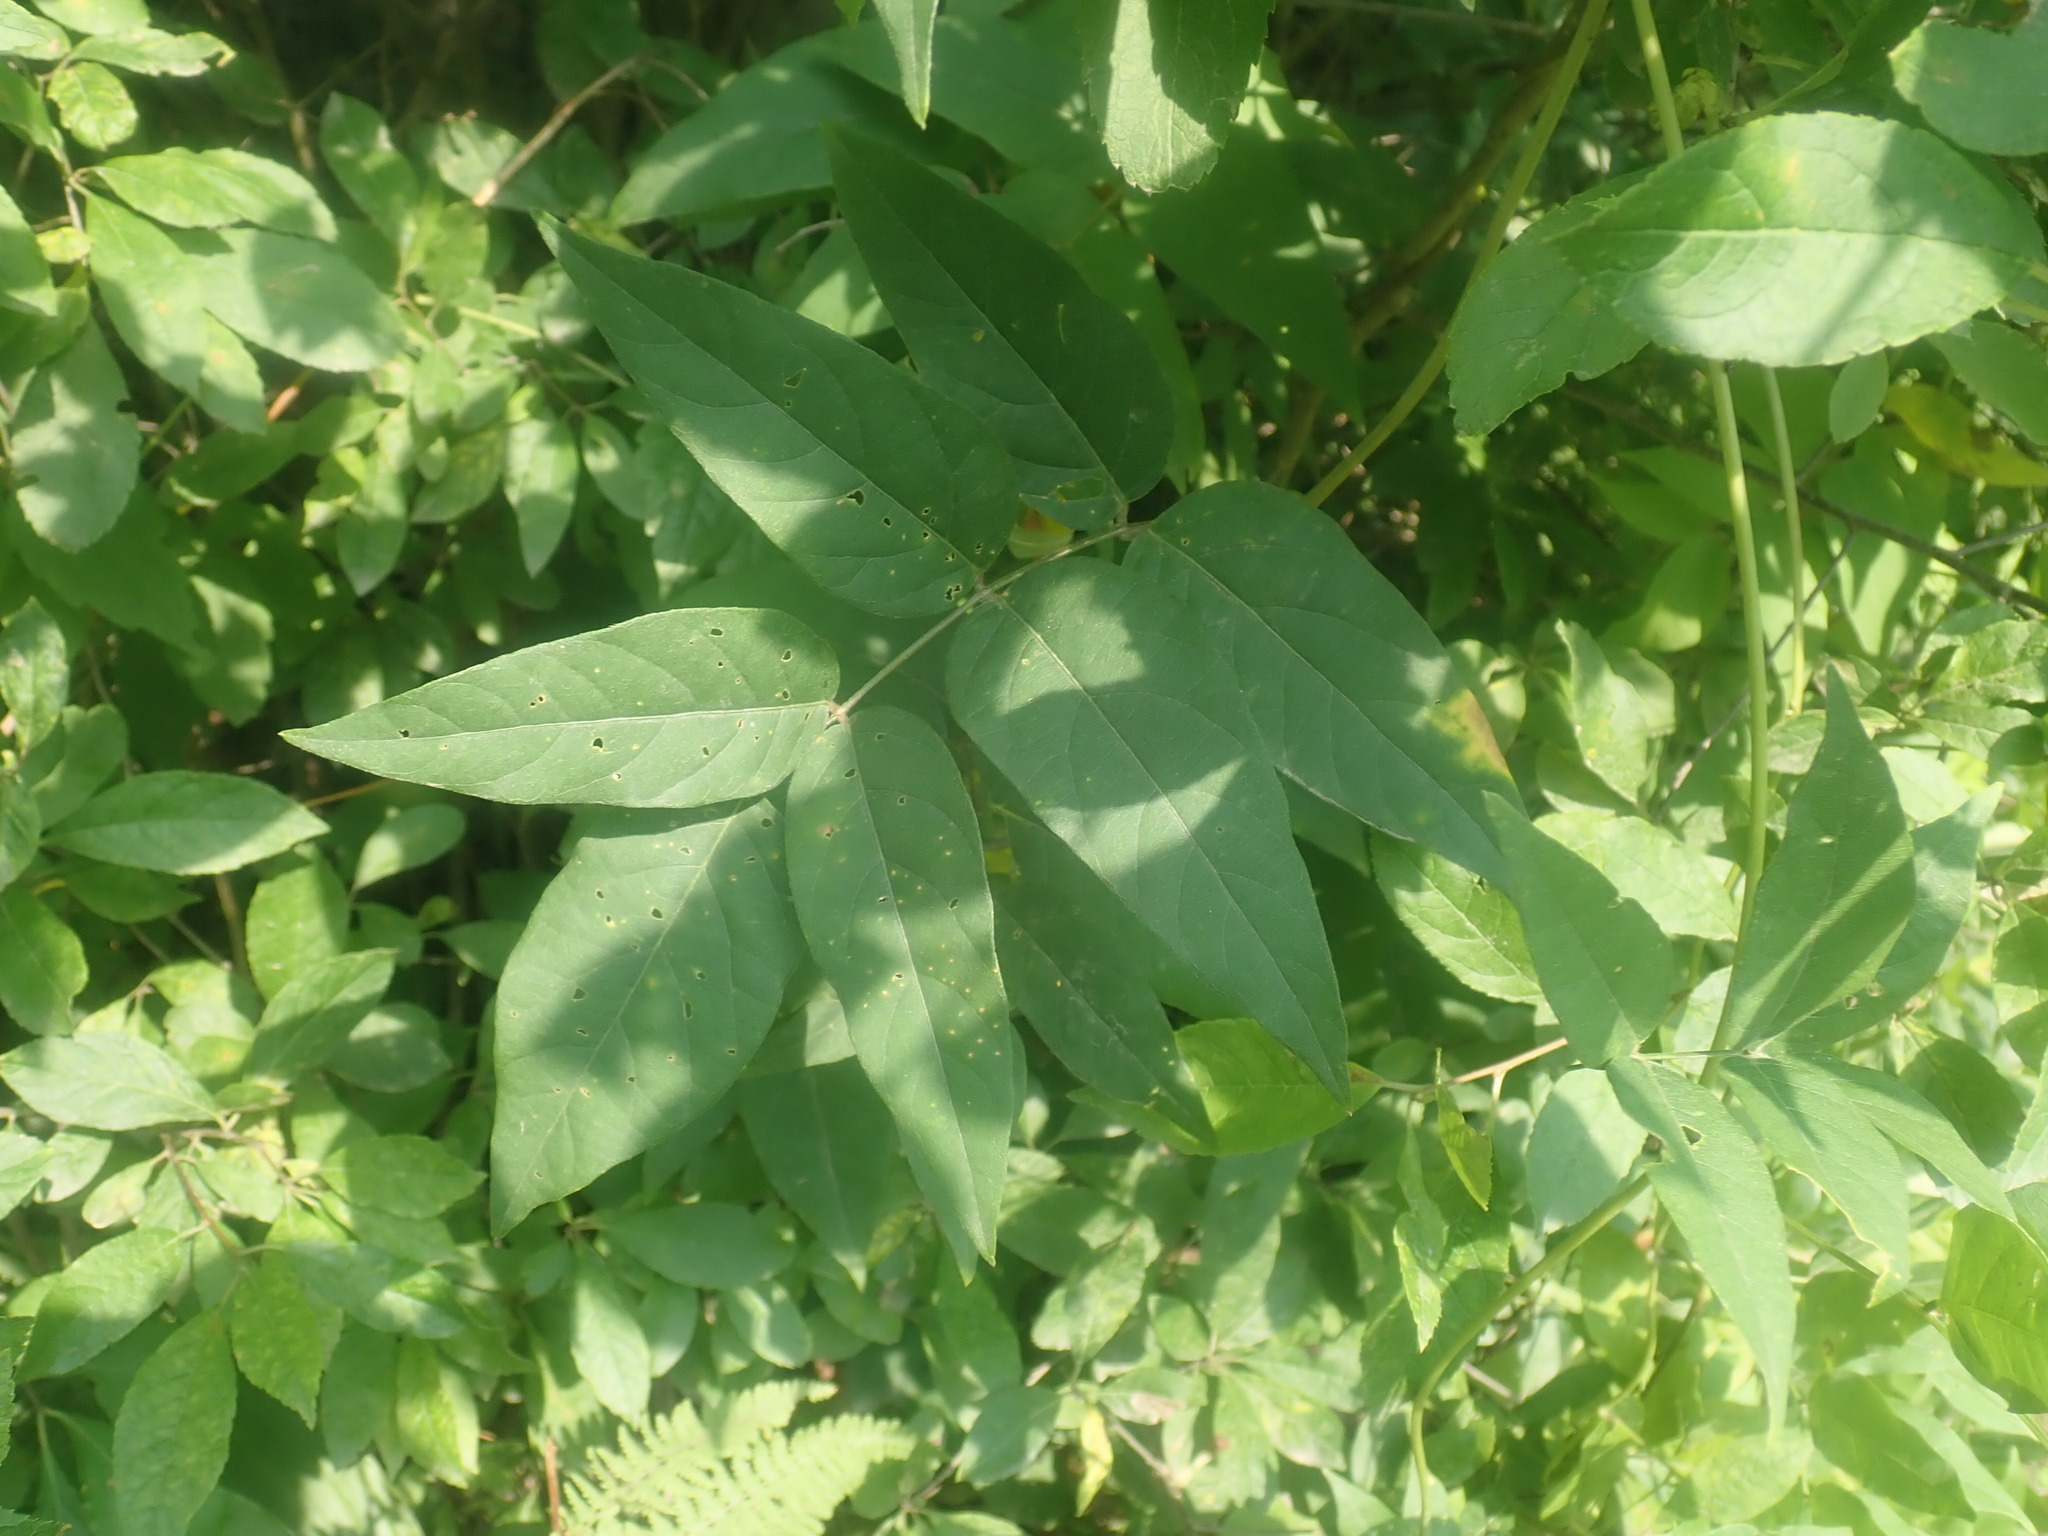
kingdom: Plantae
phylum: Tracheophyta
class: Magnoliopsida
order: Fabales
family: Fabaceae
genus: Apios
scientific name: Apios americana
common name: American potato-bean
